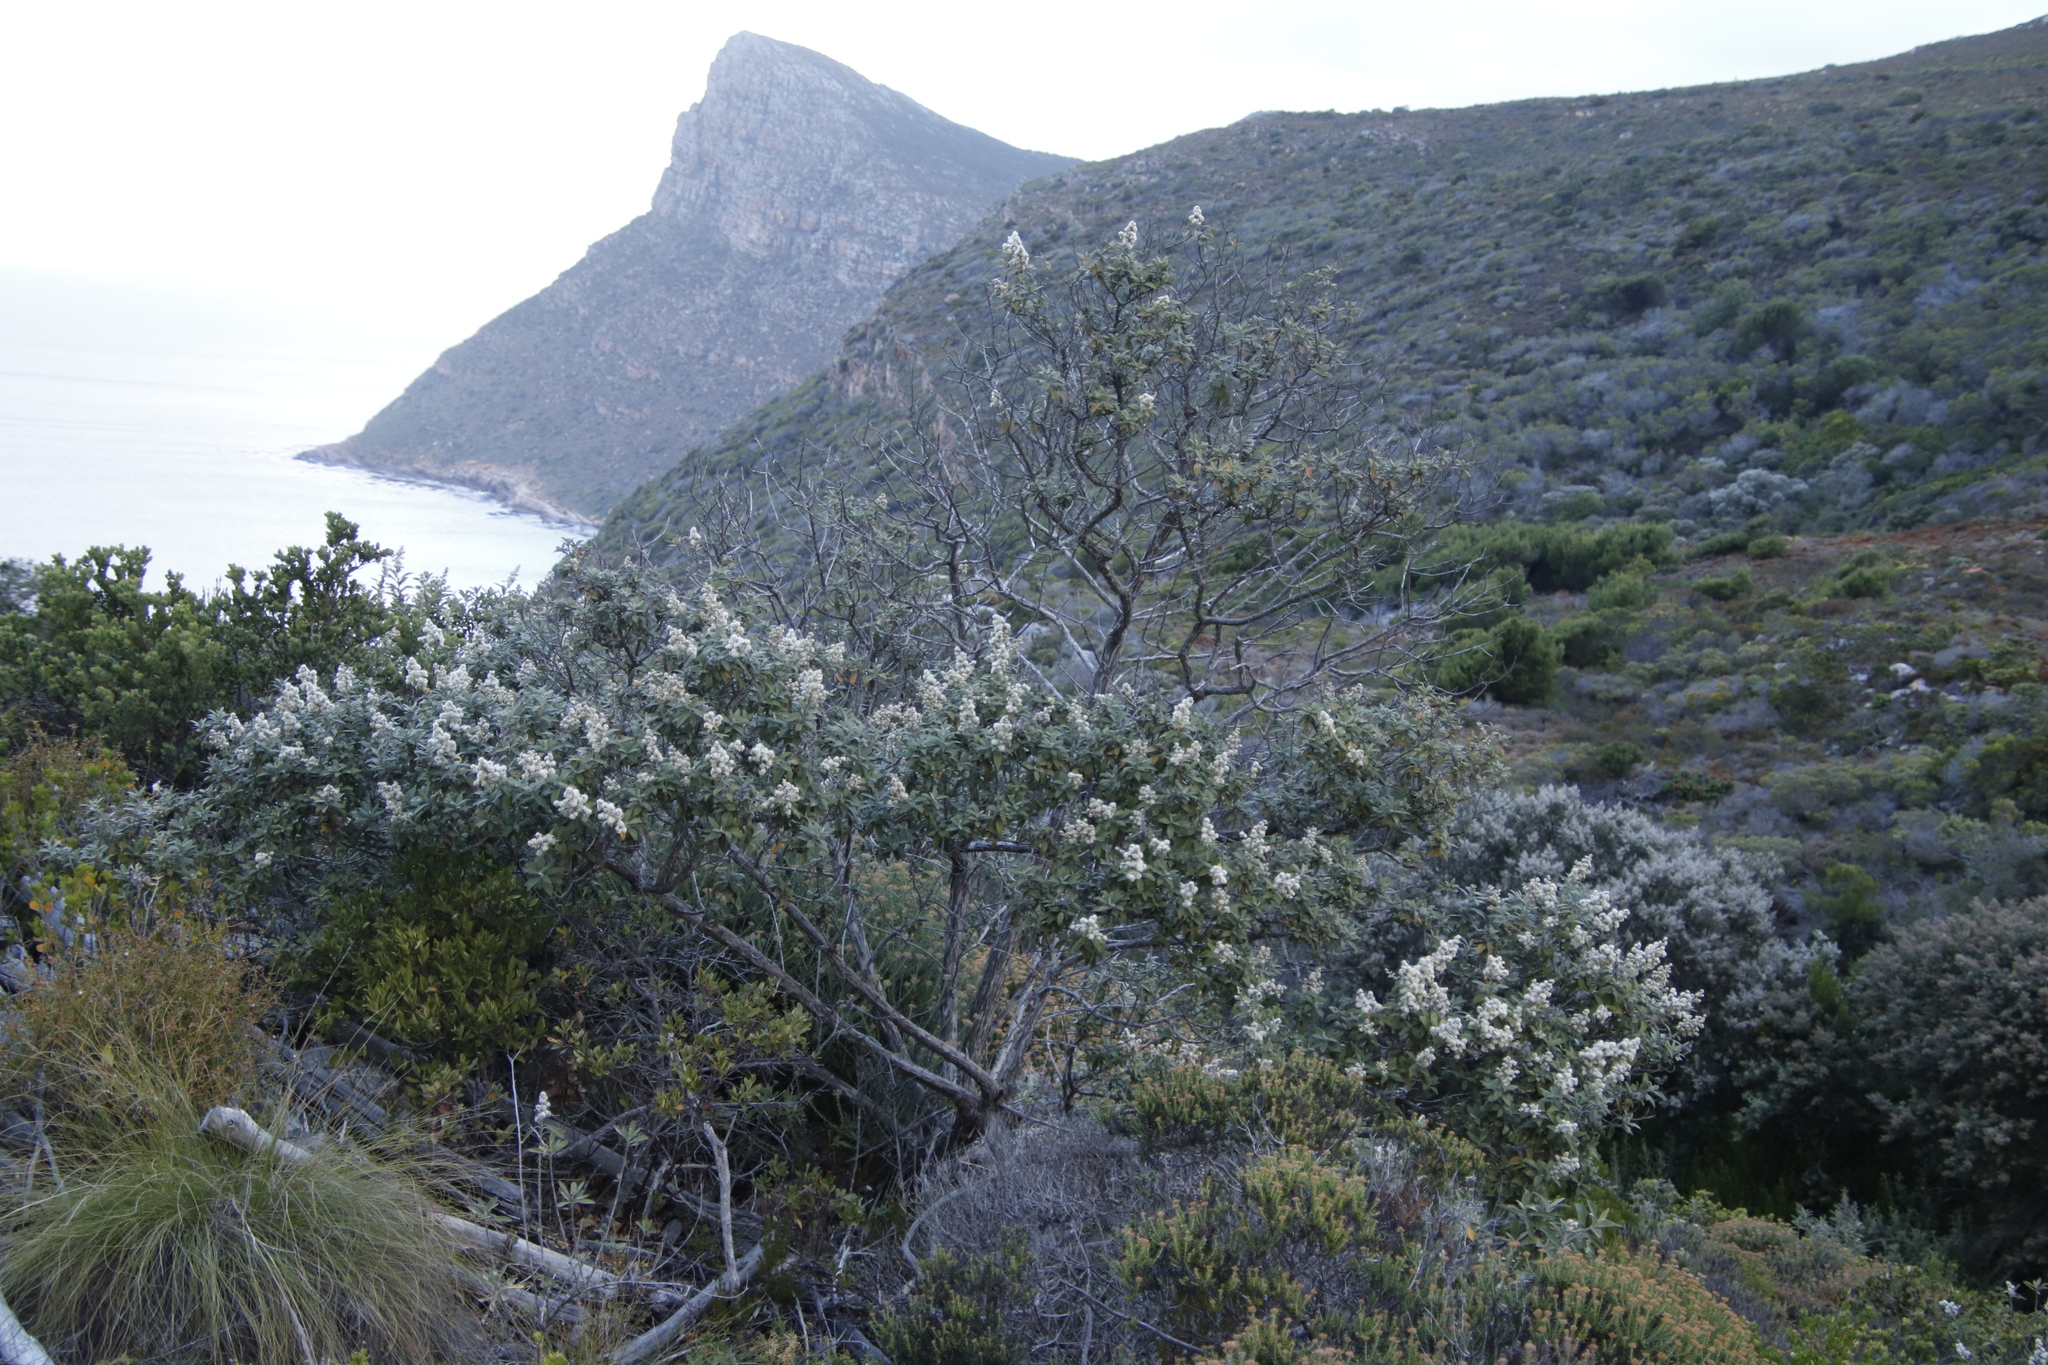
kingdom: Plantae
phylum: Tracheophyta
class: Magnoliopsida
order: Asterales
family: Asteraceae
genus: Tarchonanthus
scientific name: Tarchonanthus littoralis
